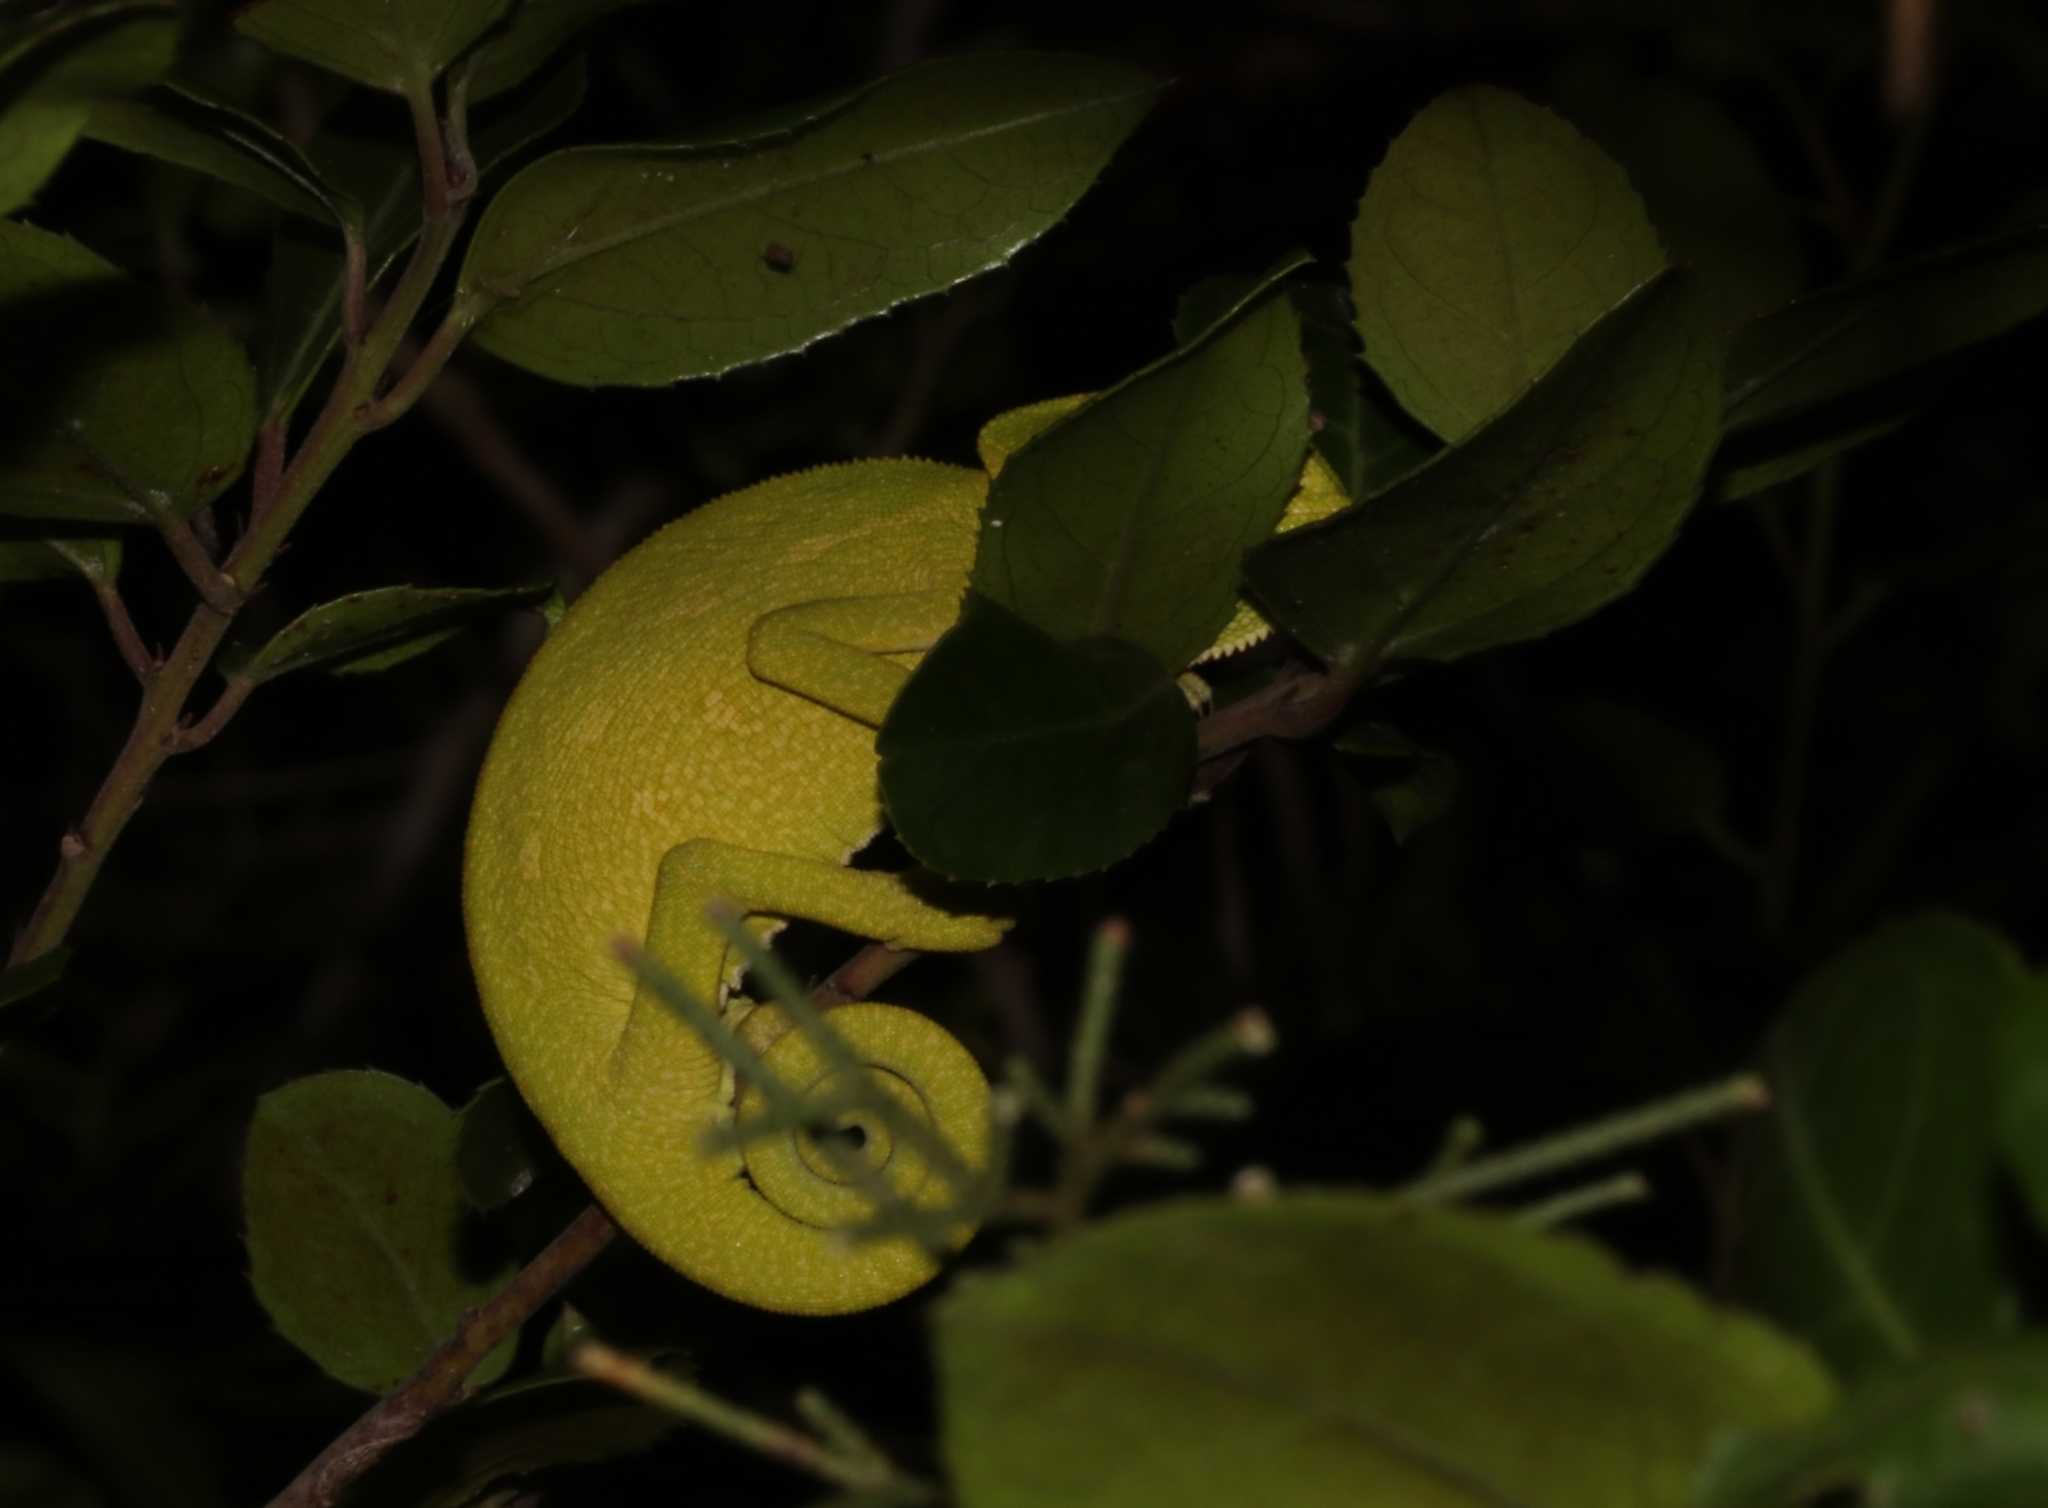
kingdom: Animalia
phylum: Chordata
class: Squamata
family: Chamaeleonidae
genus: Chamaeleo
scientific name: Chamaeleo africanus
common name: African chameleon
